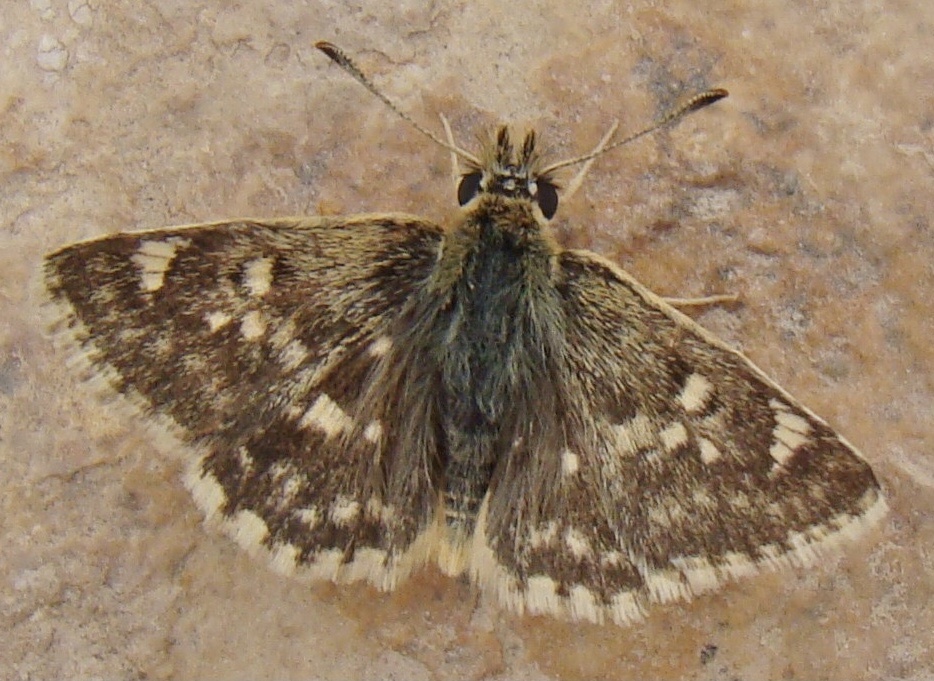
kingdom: Animalia
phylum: Arthropoda
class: Insecta
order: Lepidoptera
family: Hesperiidae
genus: Syrichtus
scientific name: Syrichtus Muschampia proteides
